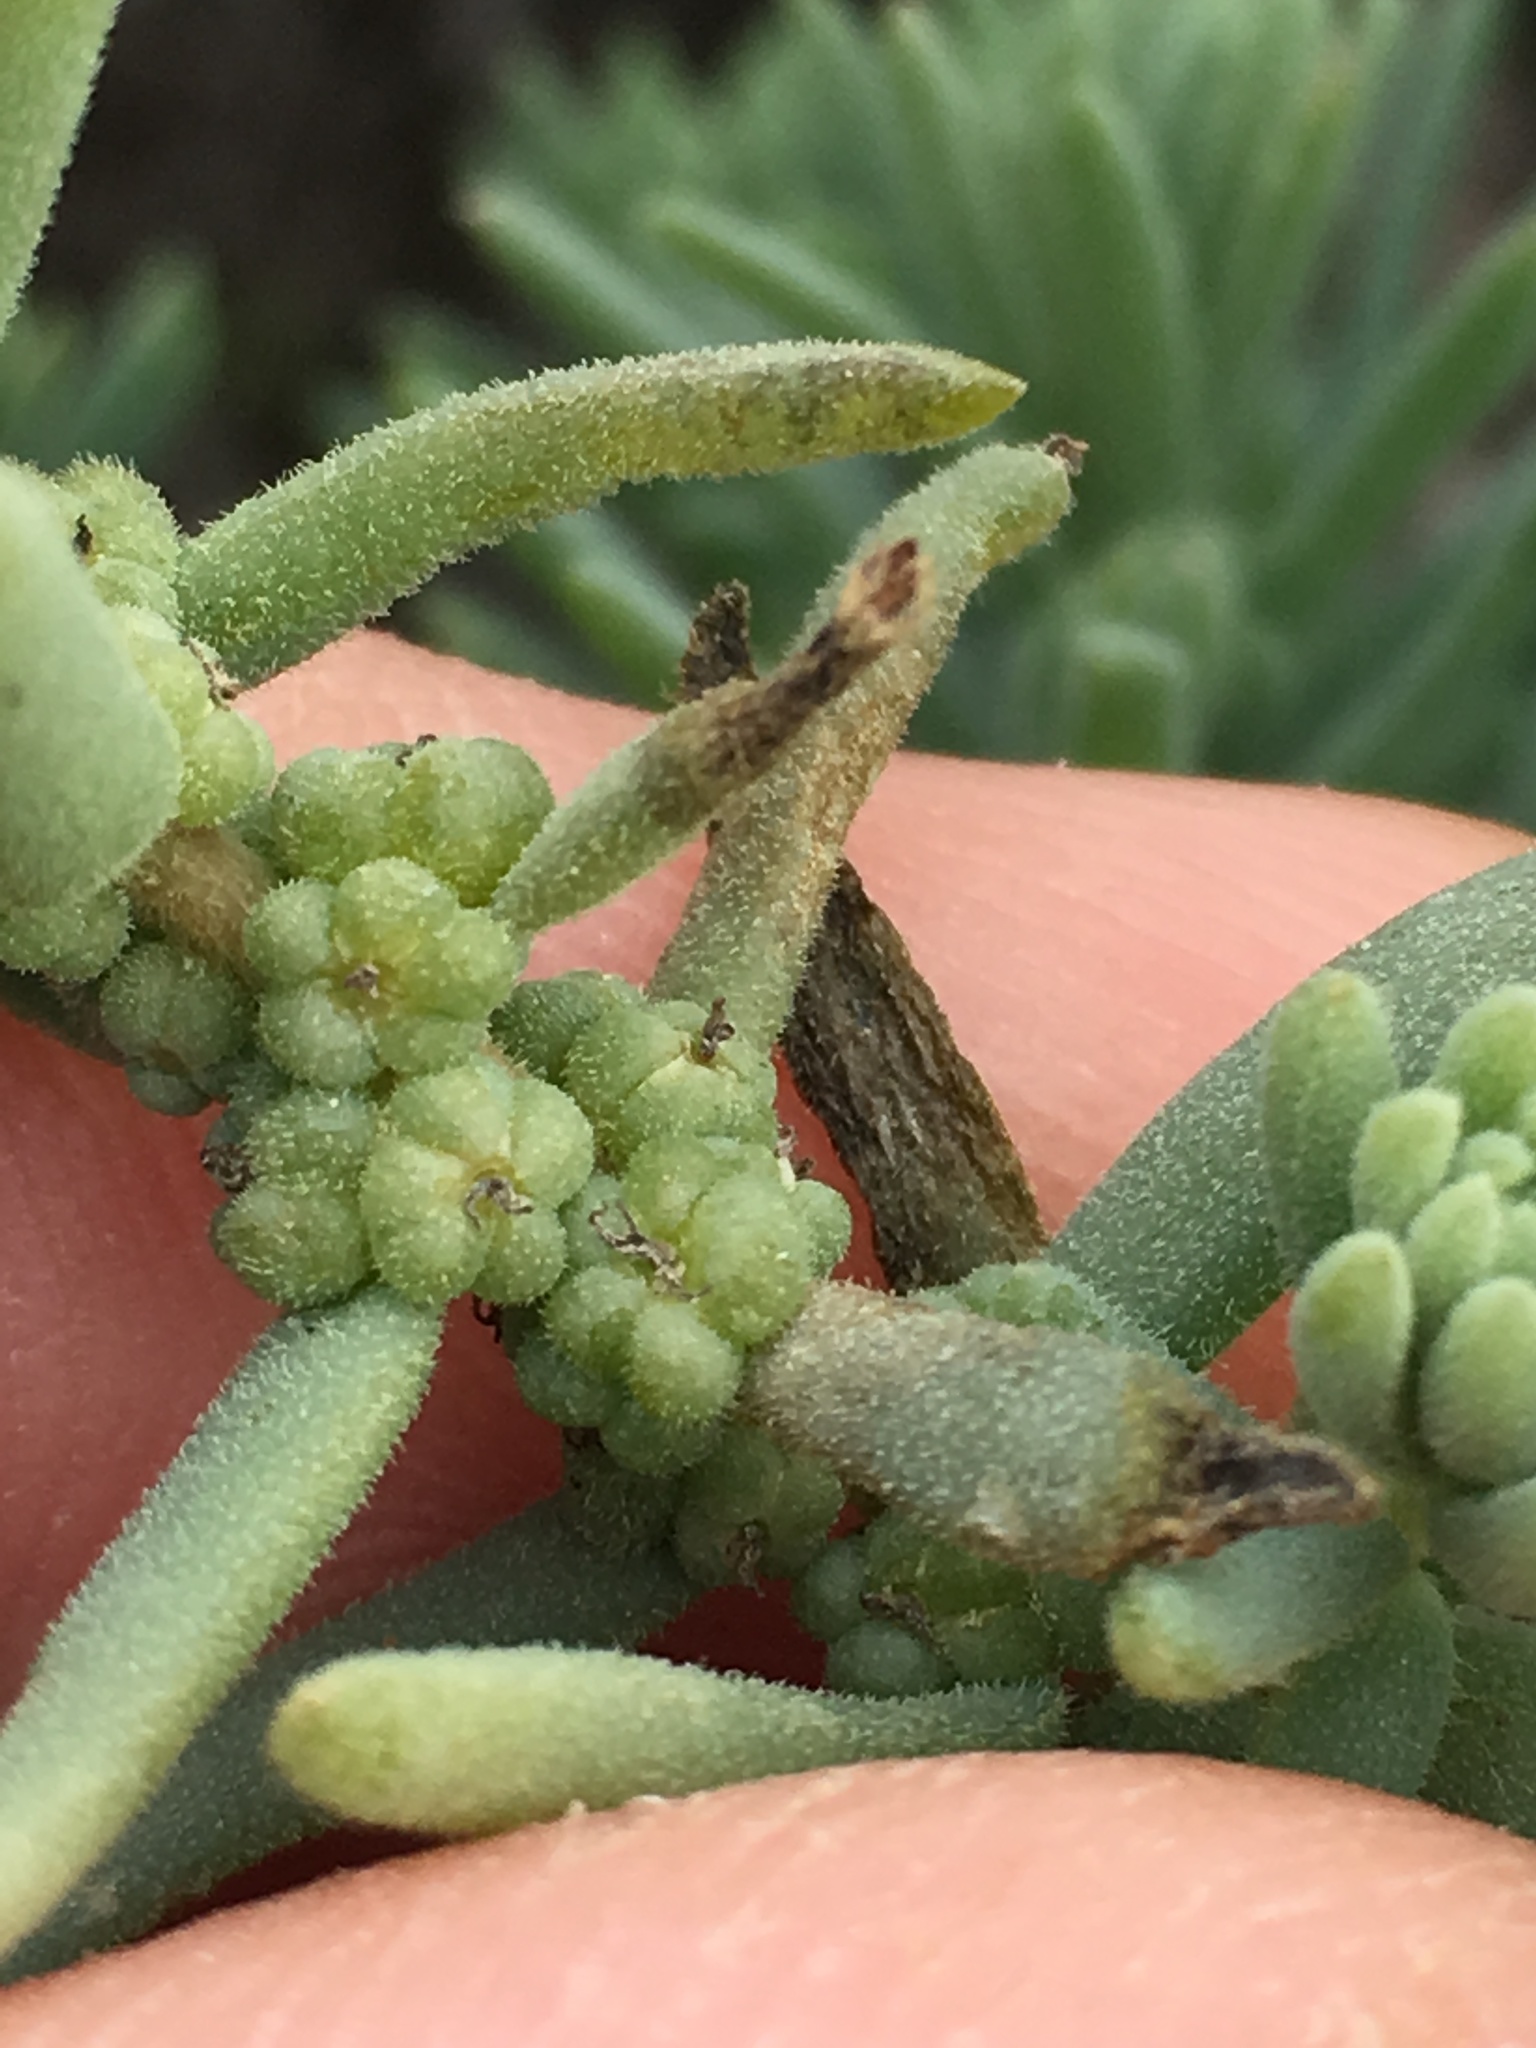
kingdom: Plantae
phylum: Tracheophyta
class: Magnoliopsida
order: Caryophyllales
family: Amaranthaceae
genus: Suaeda
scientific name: Suaeda taxifolia
